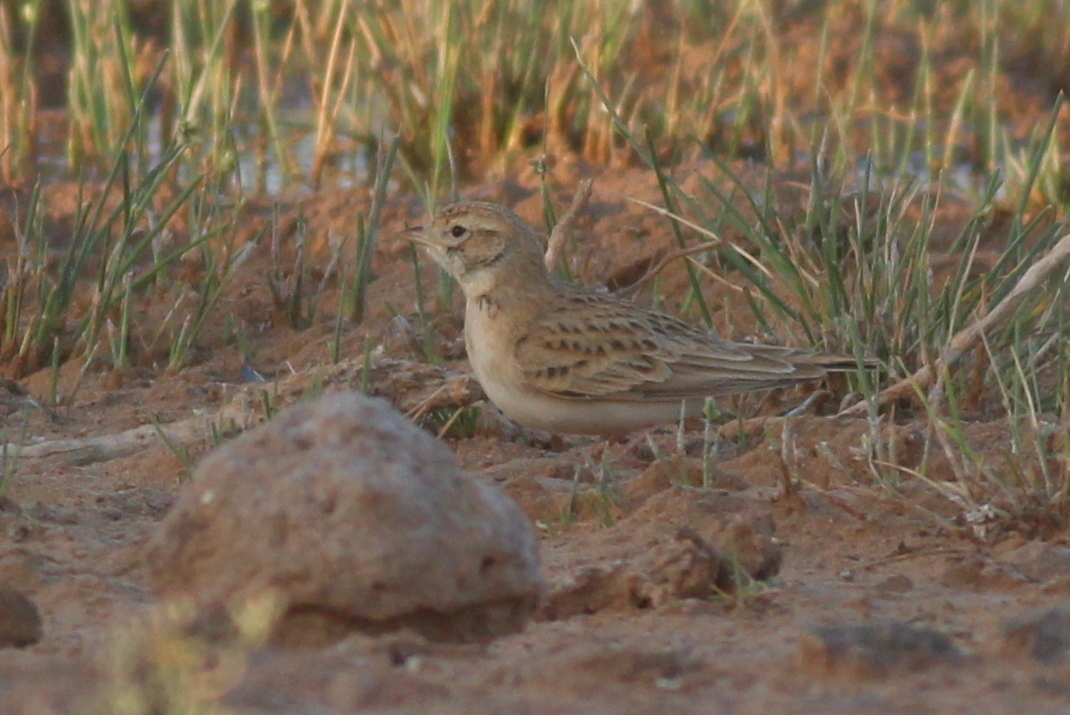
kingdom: Animalia
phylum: Chordata
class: Aves
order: Passeriformes
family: Alaudidae
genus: Calandrella
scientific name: Calandrella brachydactyla
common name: Greater short-toed lark
